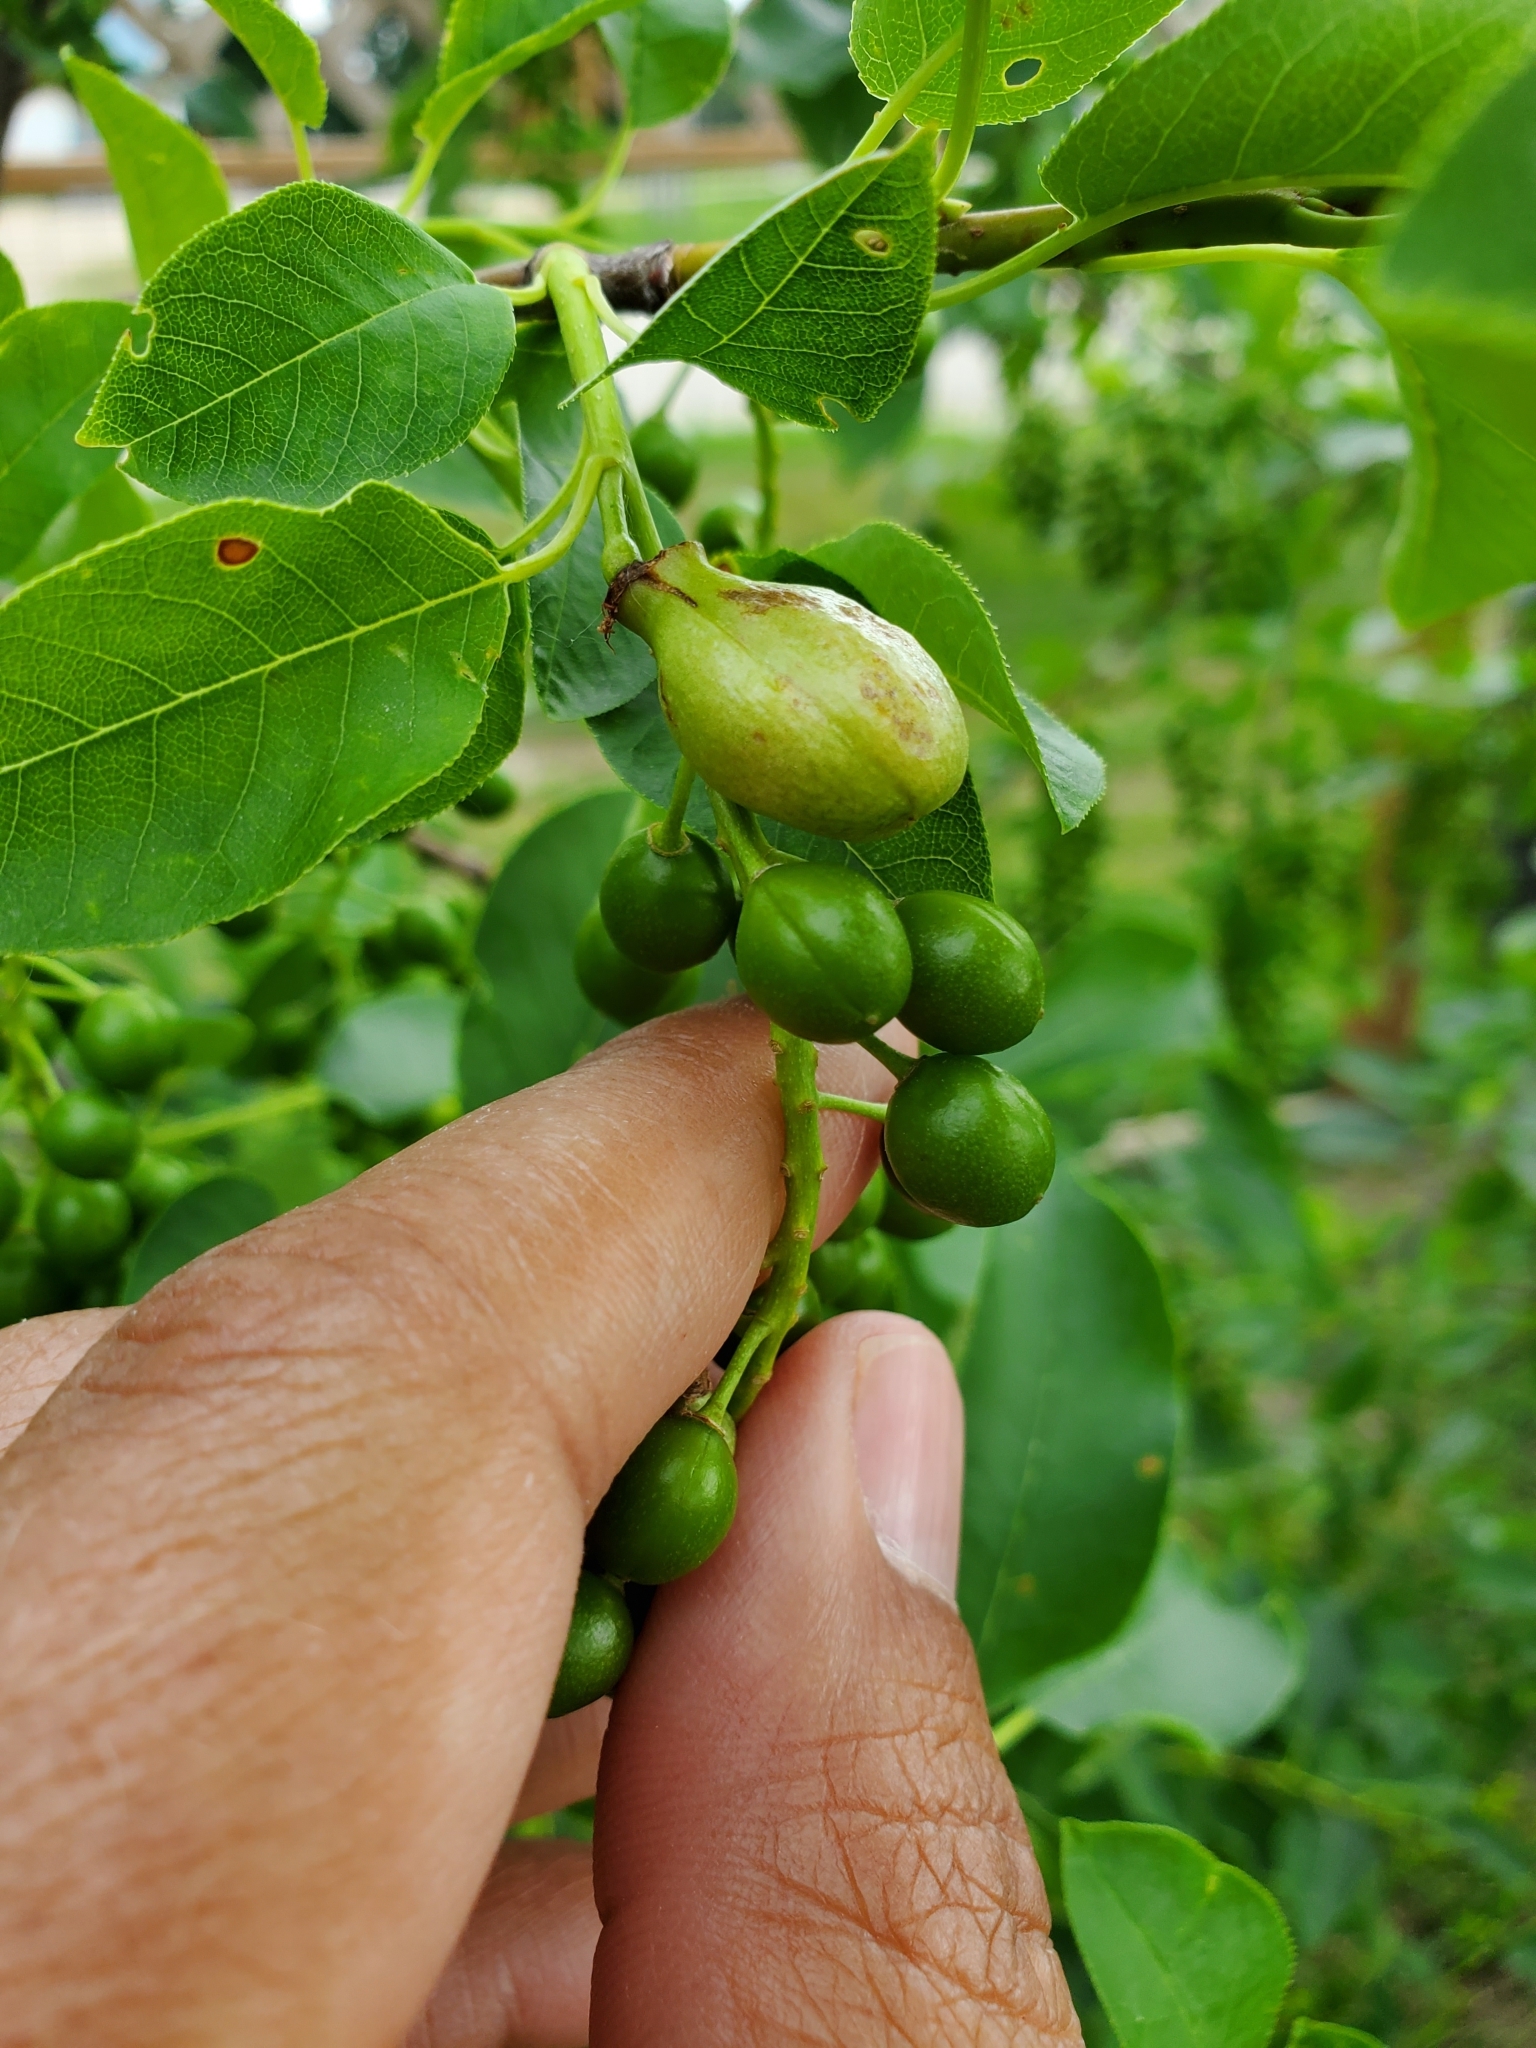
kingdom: Animalia
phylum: Arthropoda
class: Insecta
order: Diptera
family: Cecidomyiidae
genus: Contarinia
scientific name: Contarinia virginianiae
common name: Chokecherry midge
